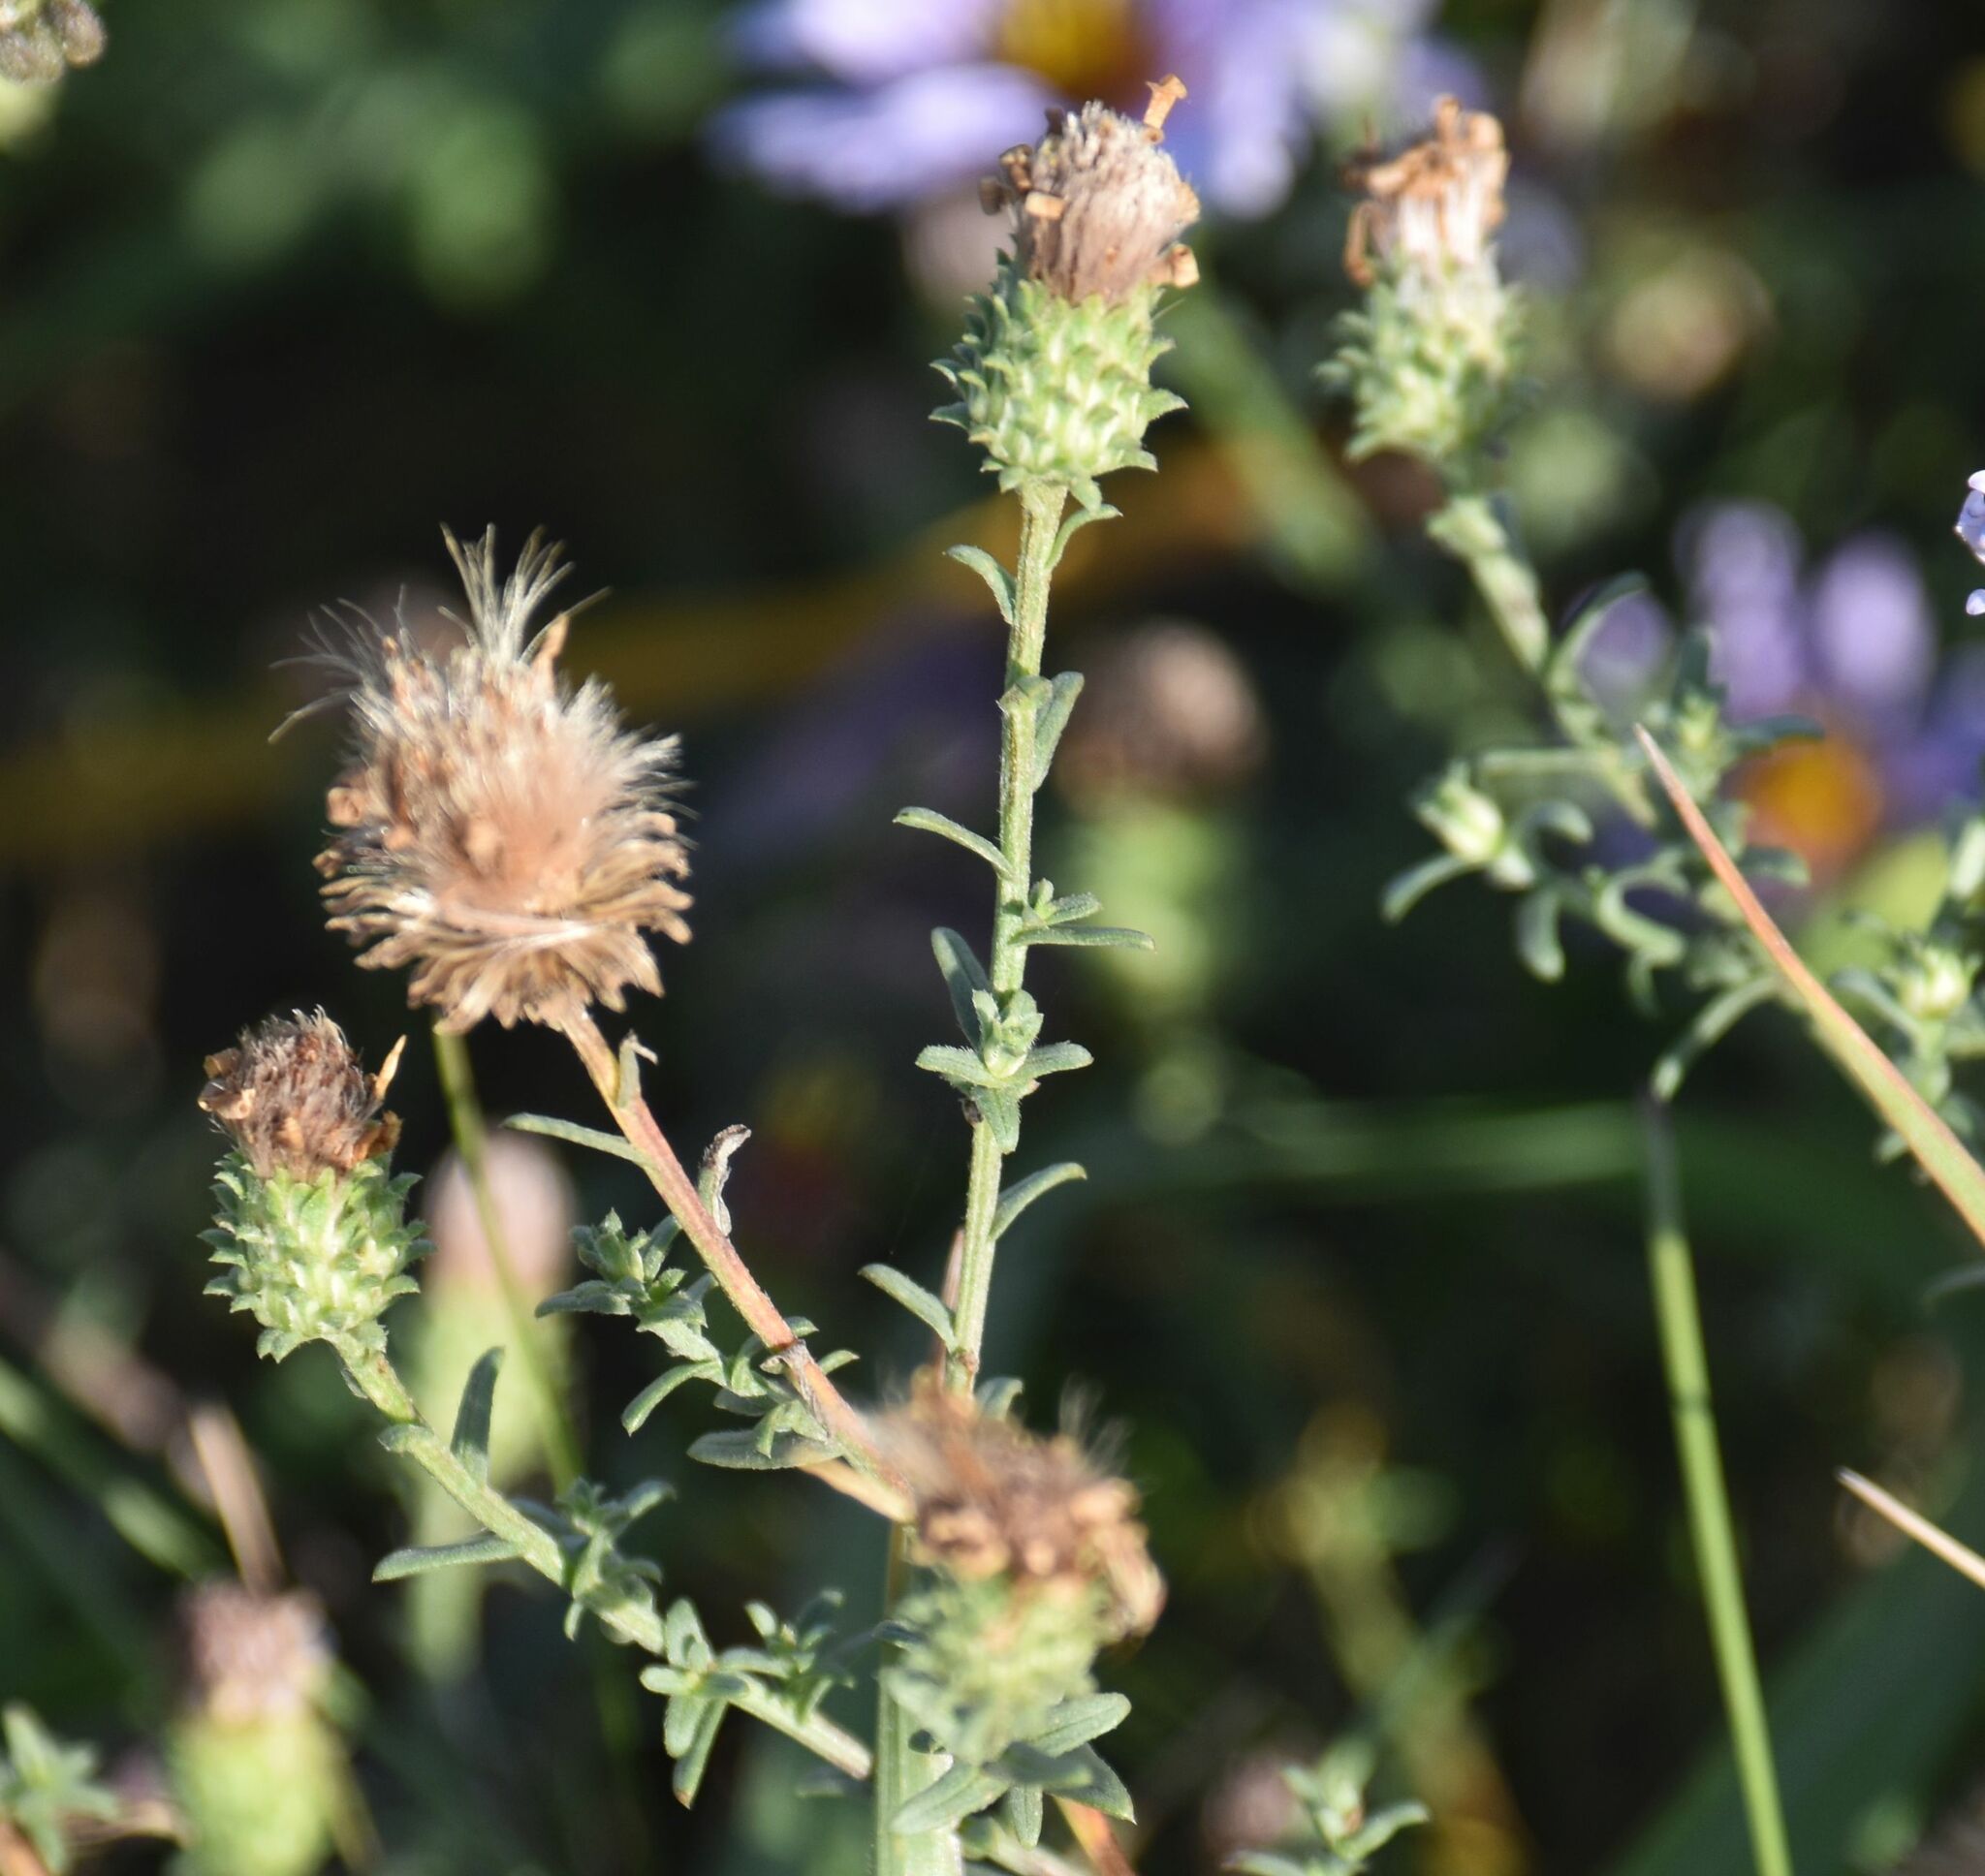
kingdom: Plantae
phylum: Tracheophyta
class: Magnoliopsida
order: Asterales
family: Asteraceae
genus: Dieteria
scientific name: Dieteria canescens
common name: Hoary-aster
